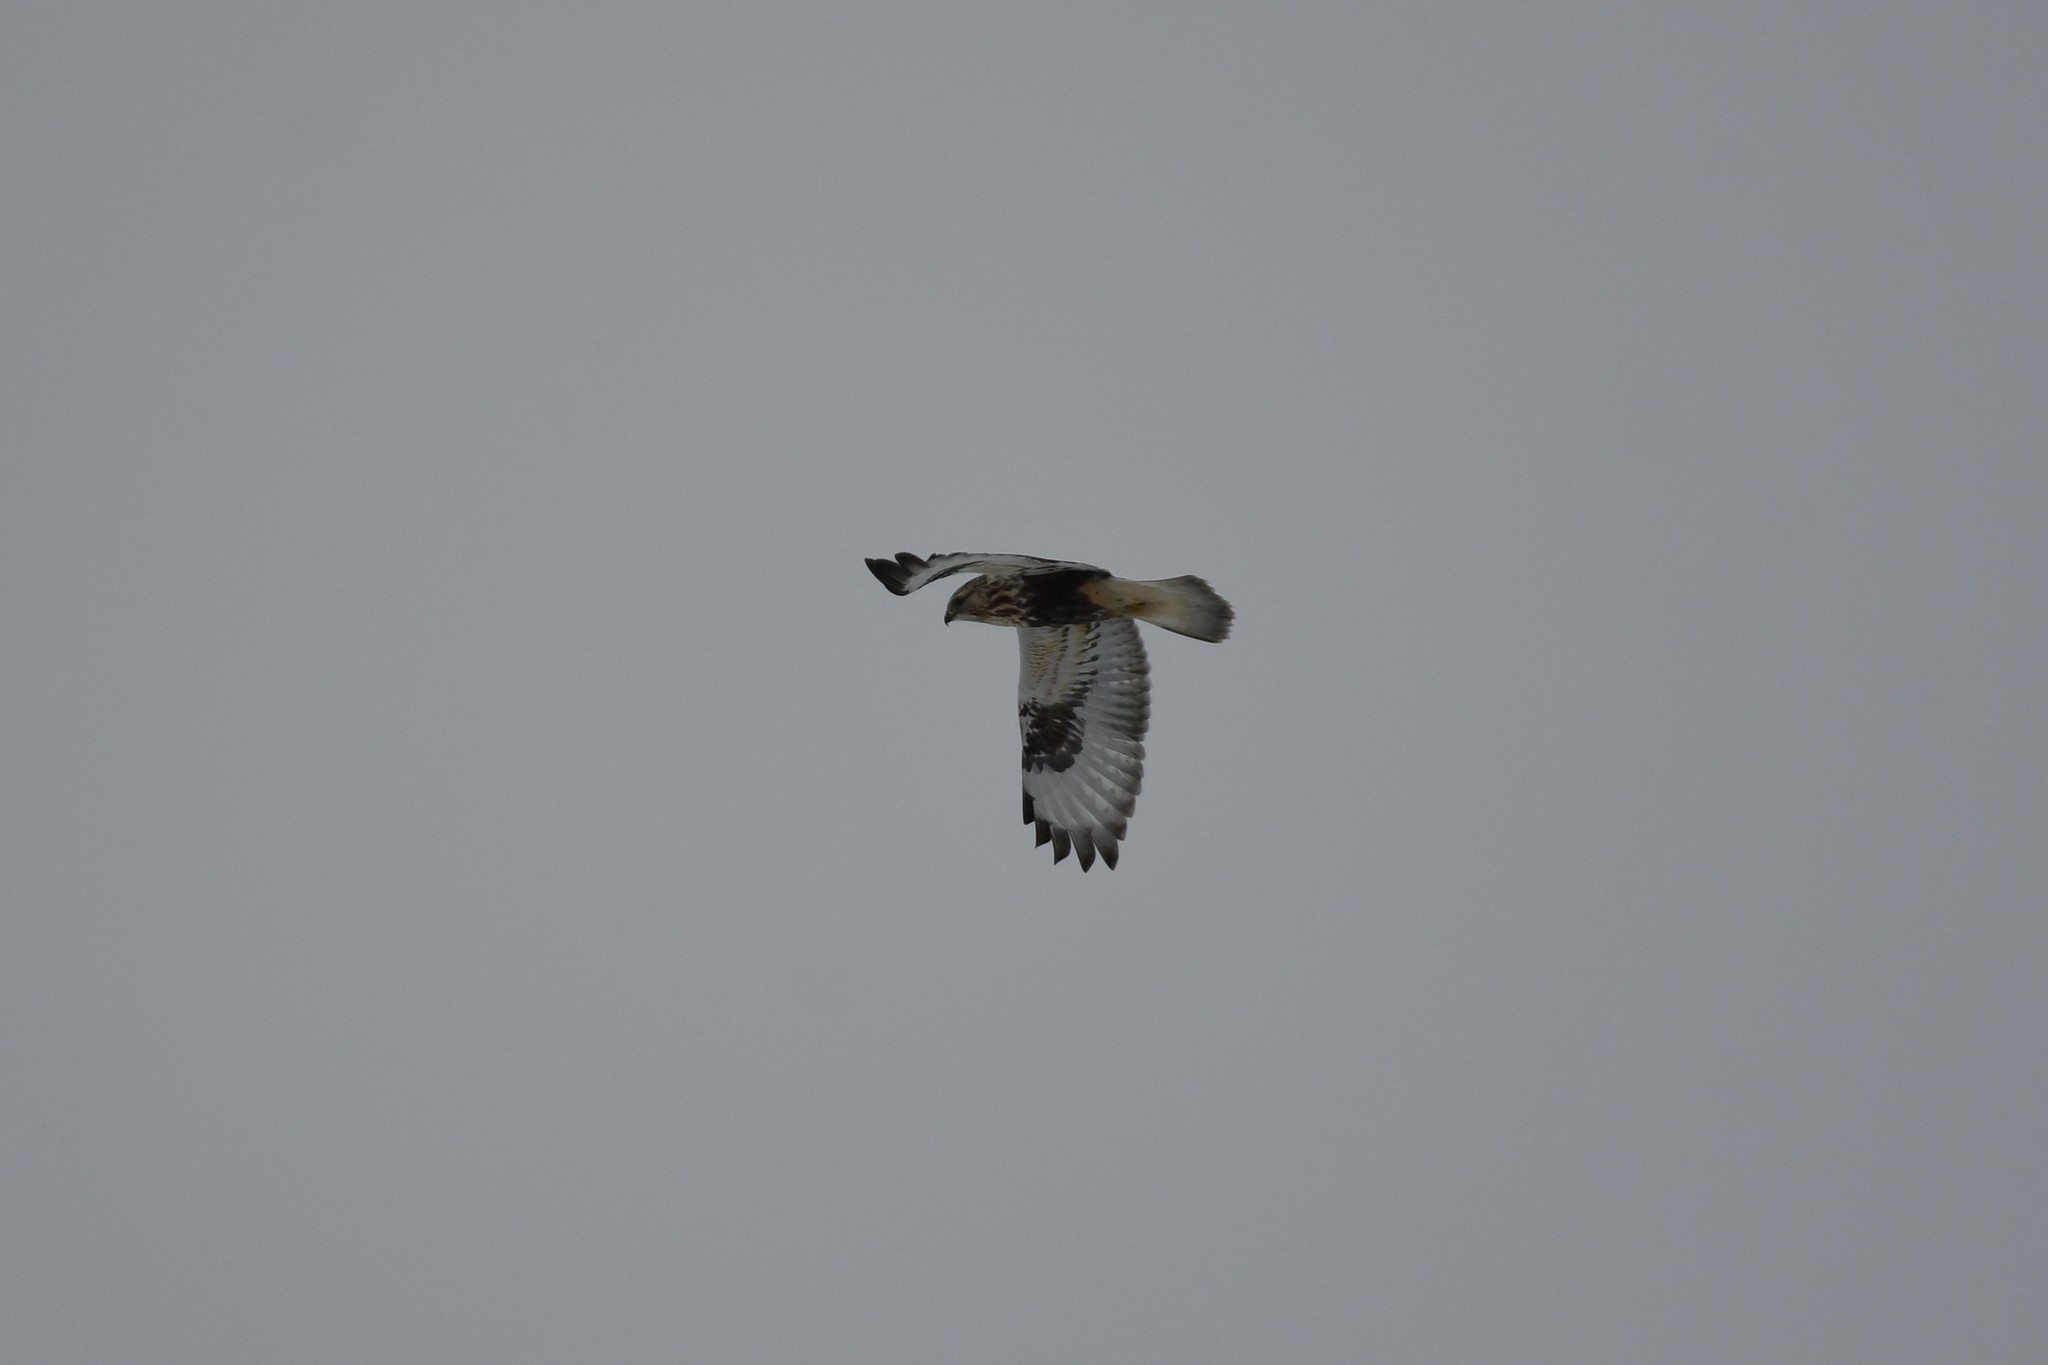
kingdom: Animalia
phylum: Chordata
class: Aves
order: Accipitriformes
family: Accipitridae
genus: Buteo
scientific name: Buteo lagopus
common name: Rough-legged buzzard
